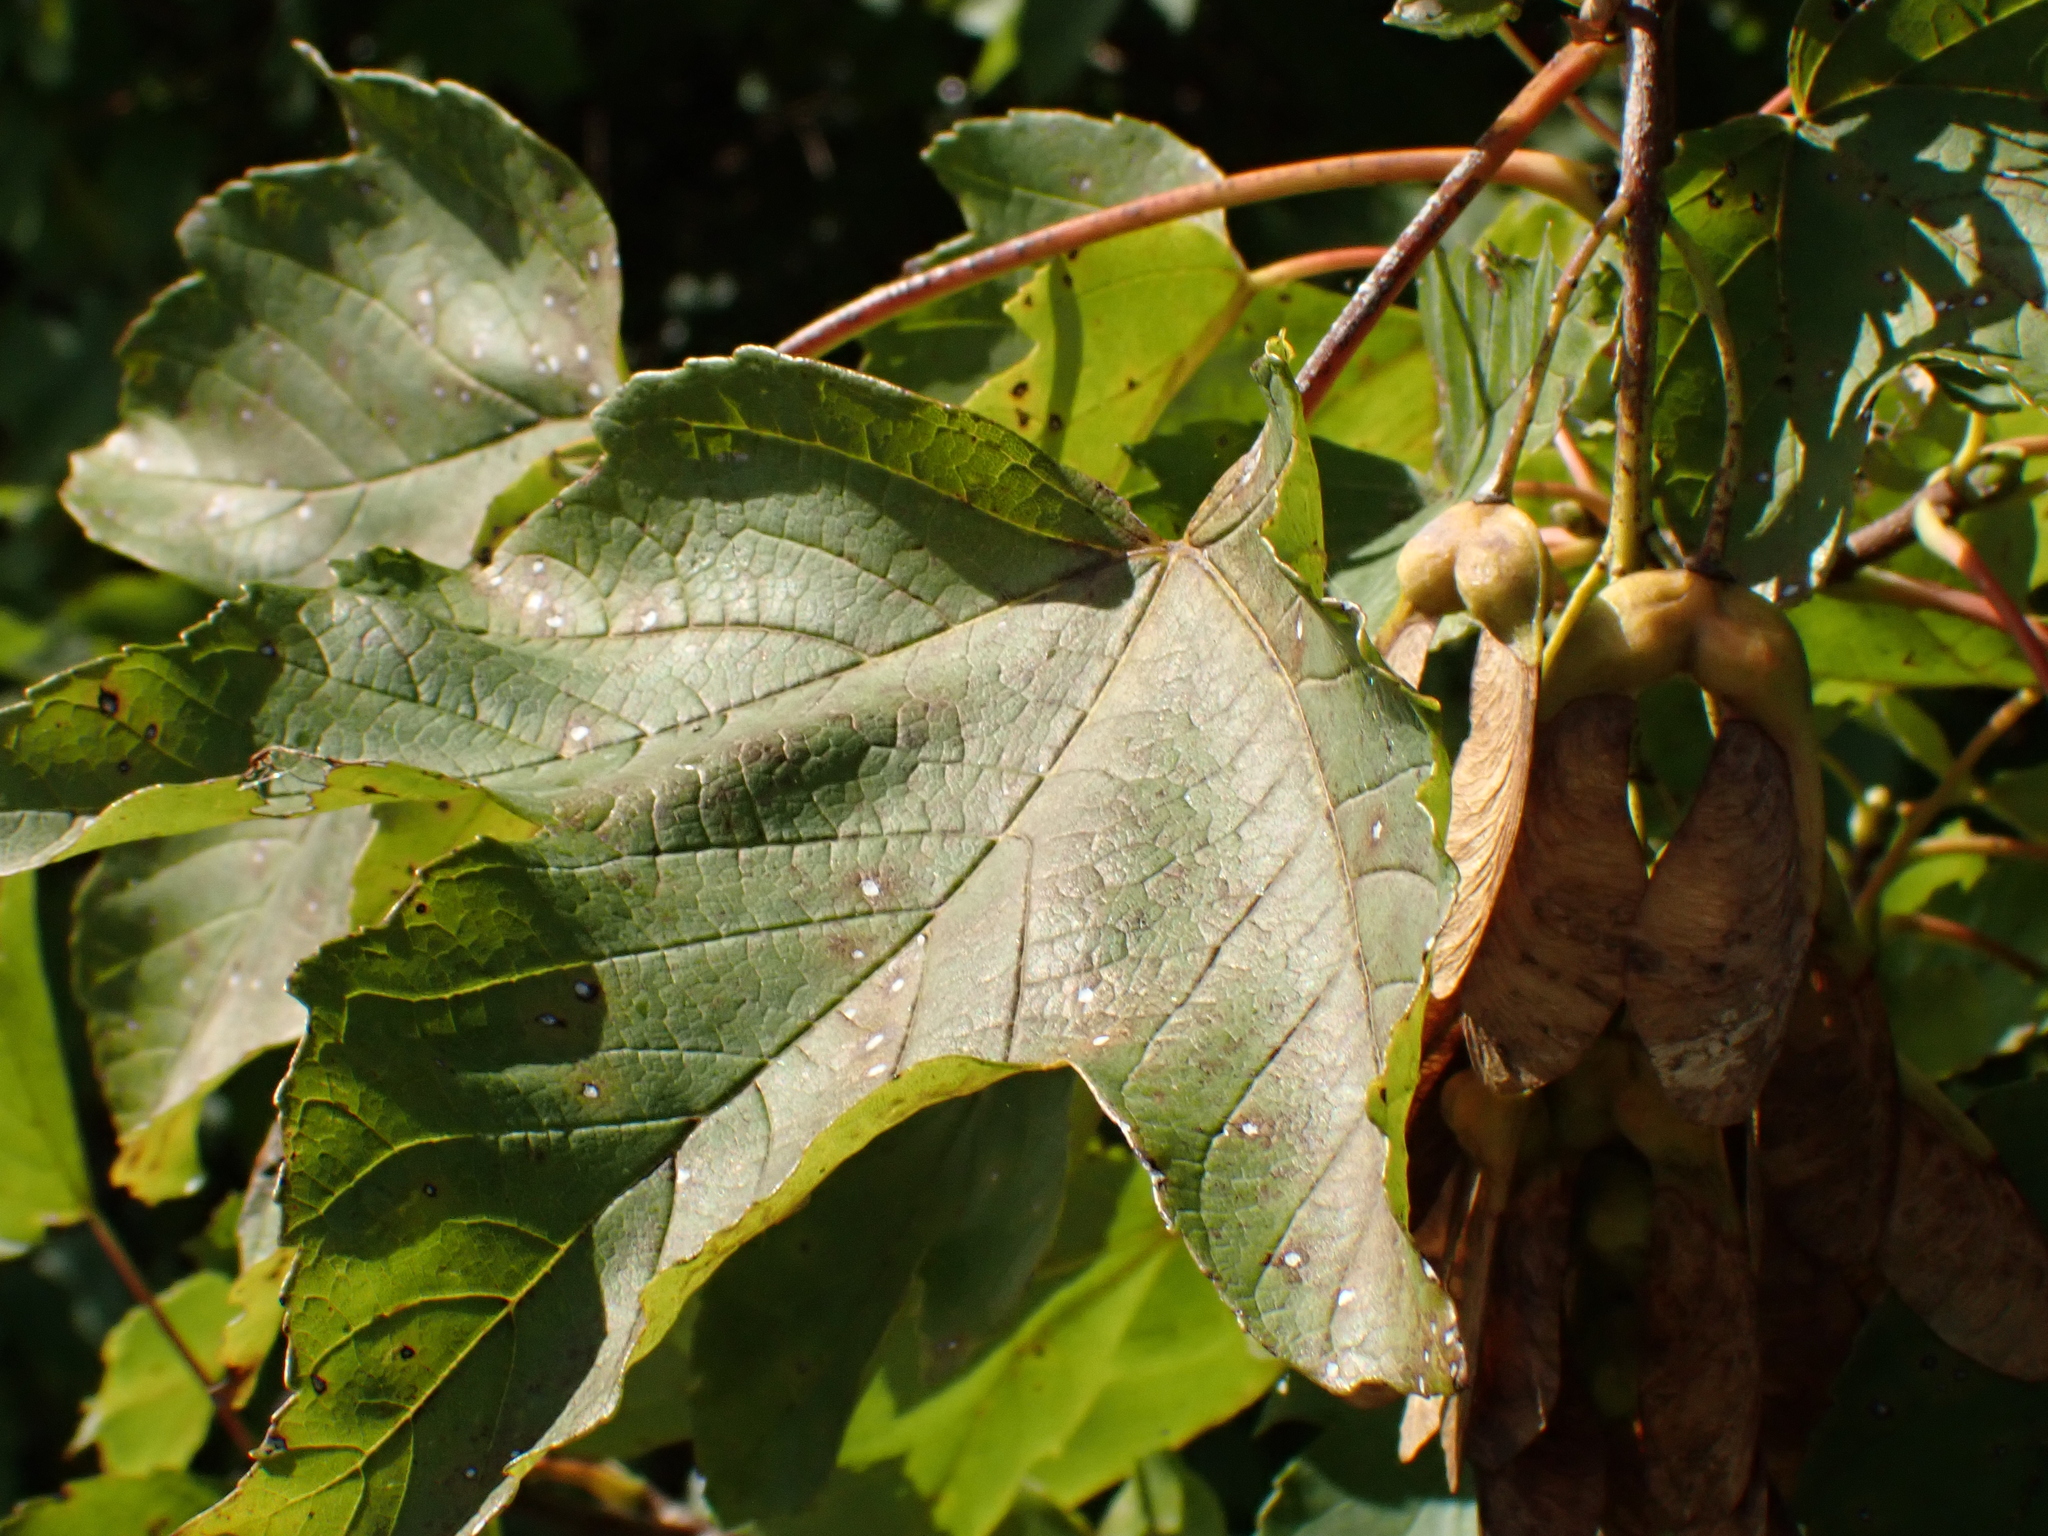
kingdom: Plantae
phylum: Tracheophyta
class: Magnoliopsida
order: Sapindales
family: Sapindaceae
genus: Acer
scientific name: Acer pseudoplatanus
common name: Sycamore
